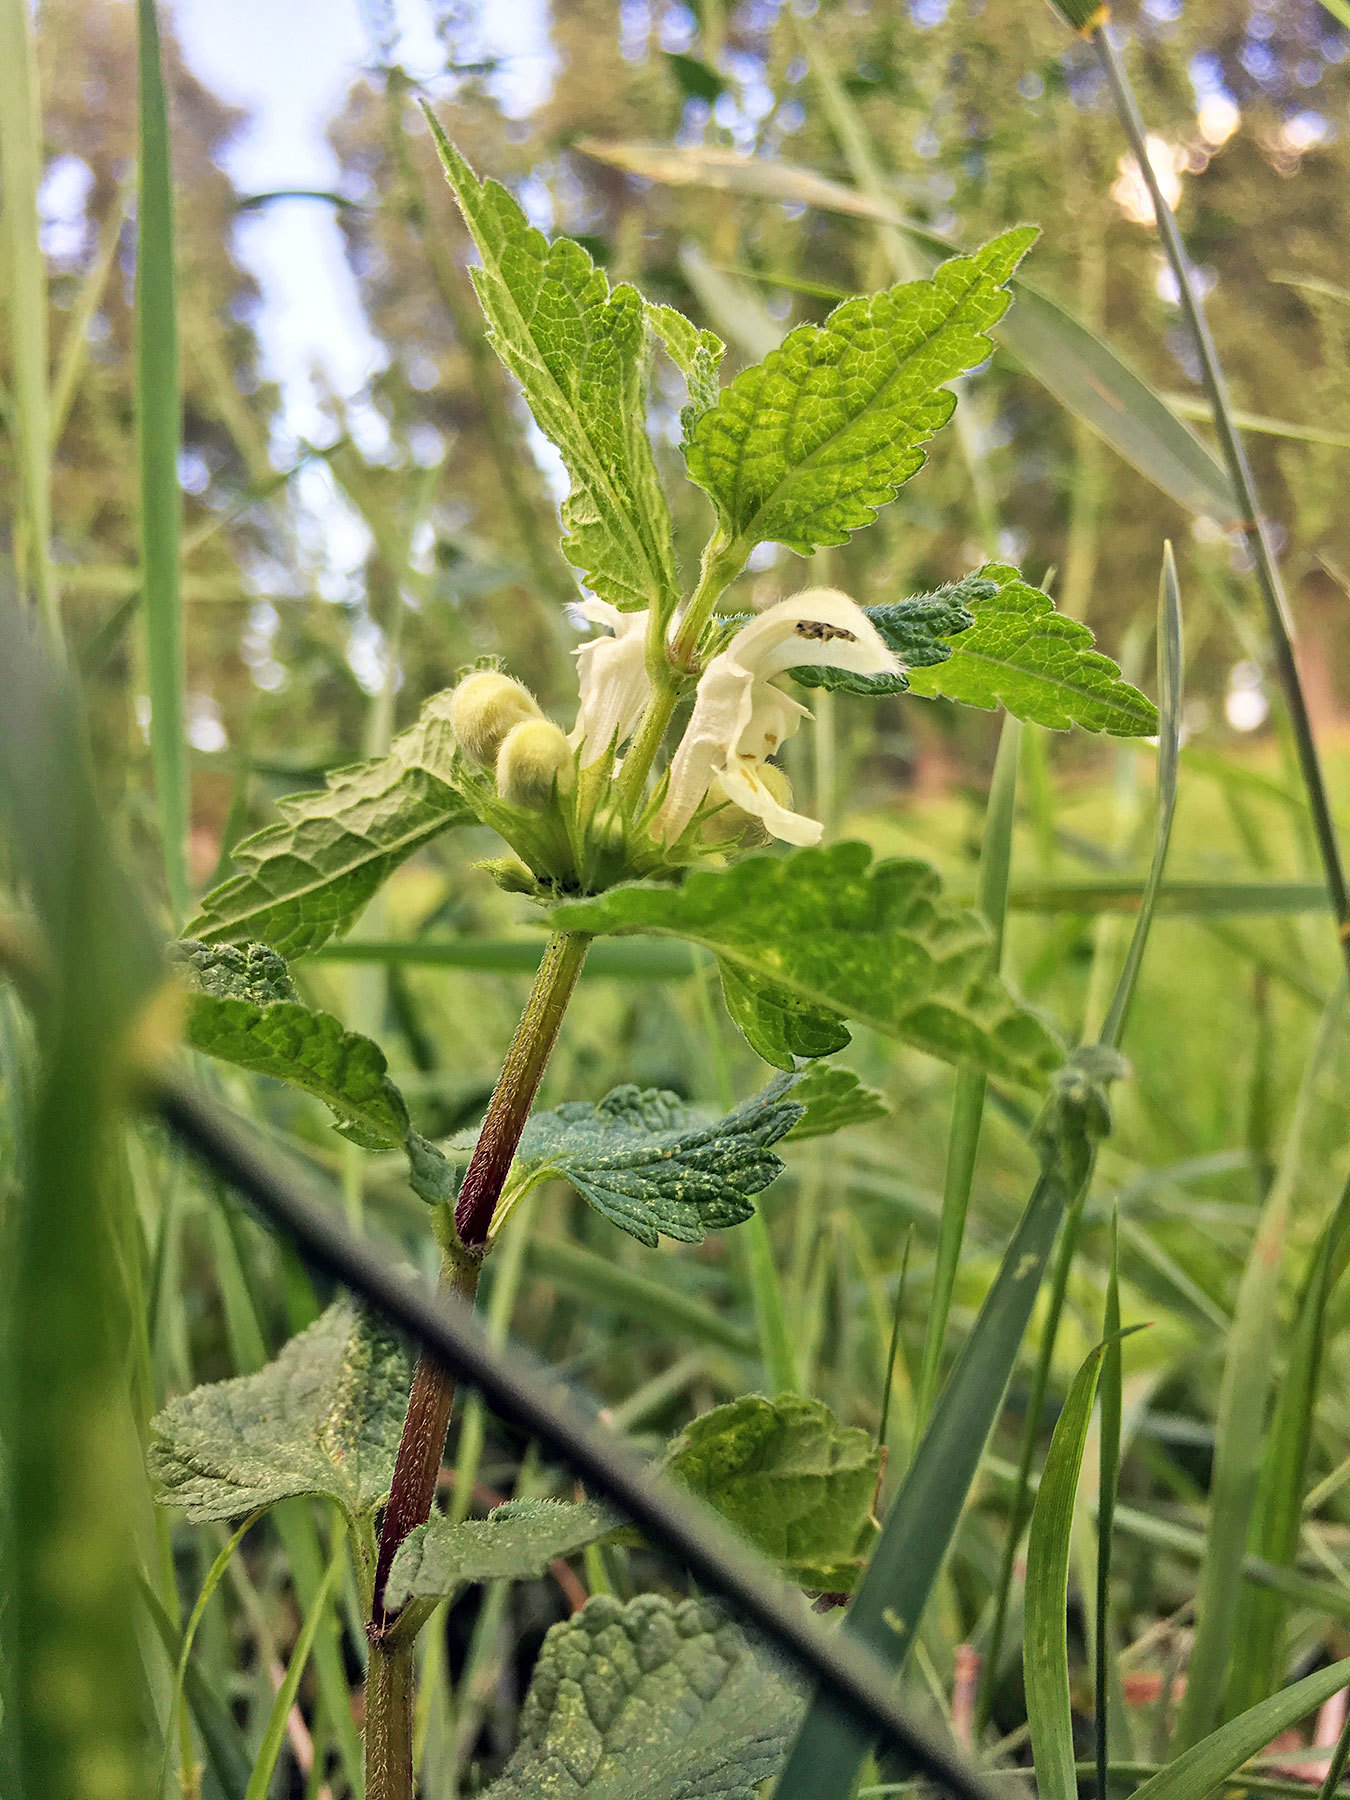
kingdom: Plantae
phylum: Tracheophyta
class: Magnoliopsida
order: Lamiales
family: Lamiaceae
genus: Lamium
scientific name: Lamium album
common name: White dead-nettle
